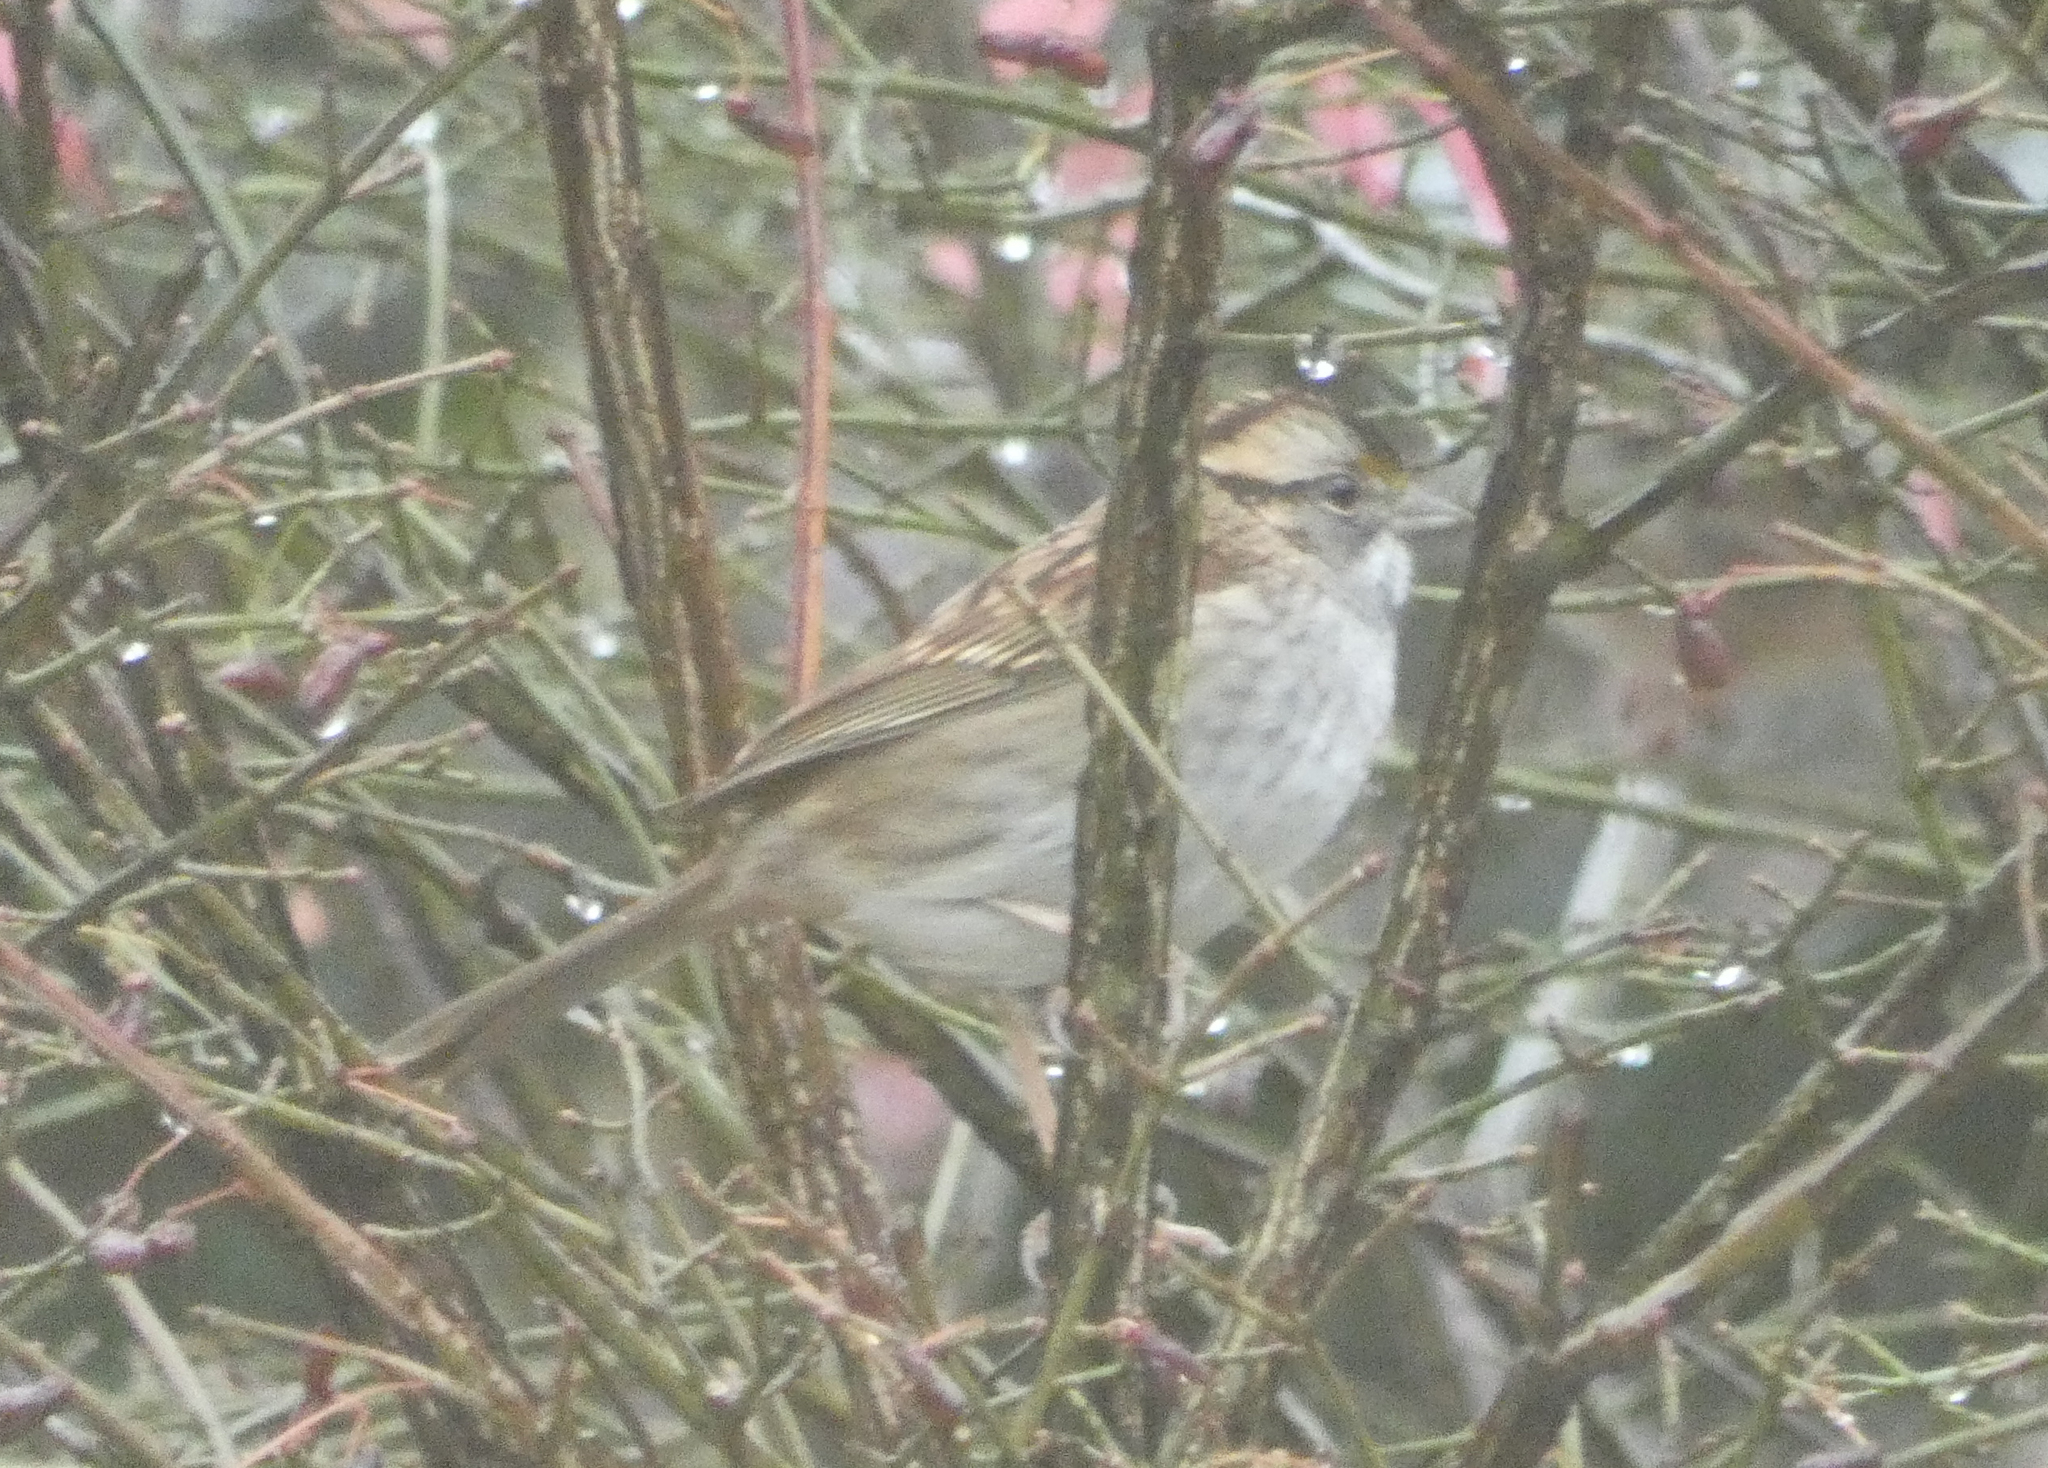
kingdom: Animalia
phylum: Chordata
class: Aves
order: Passeriformes
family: Passerellidae
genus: Zonotrichia
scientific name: Zonotrichia albicollis
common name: White-throated sparrow
